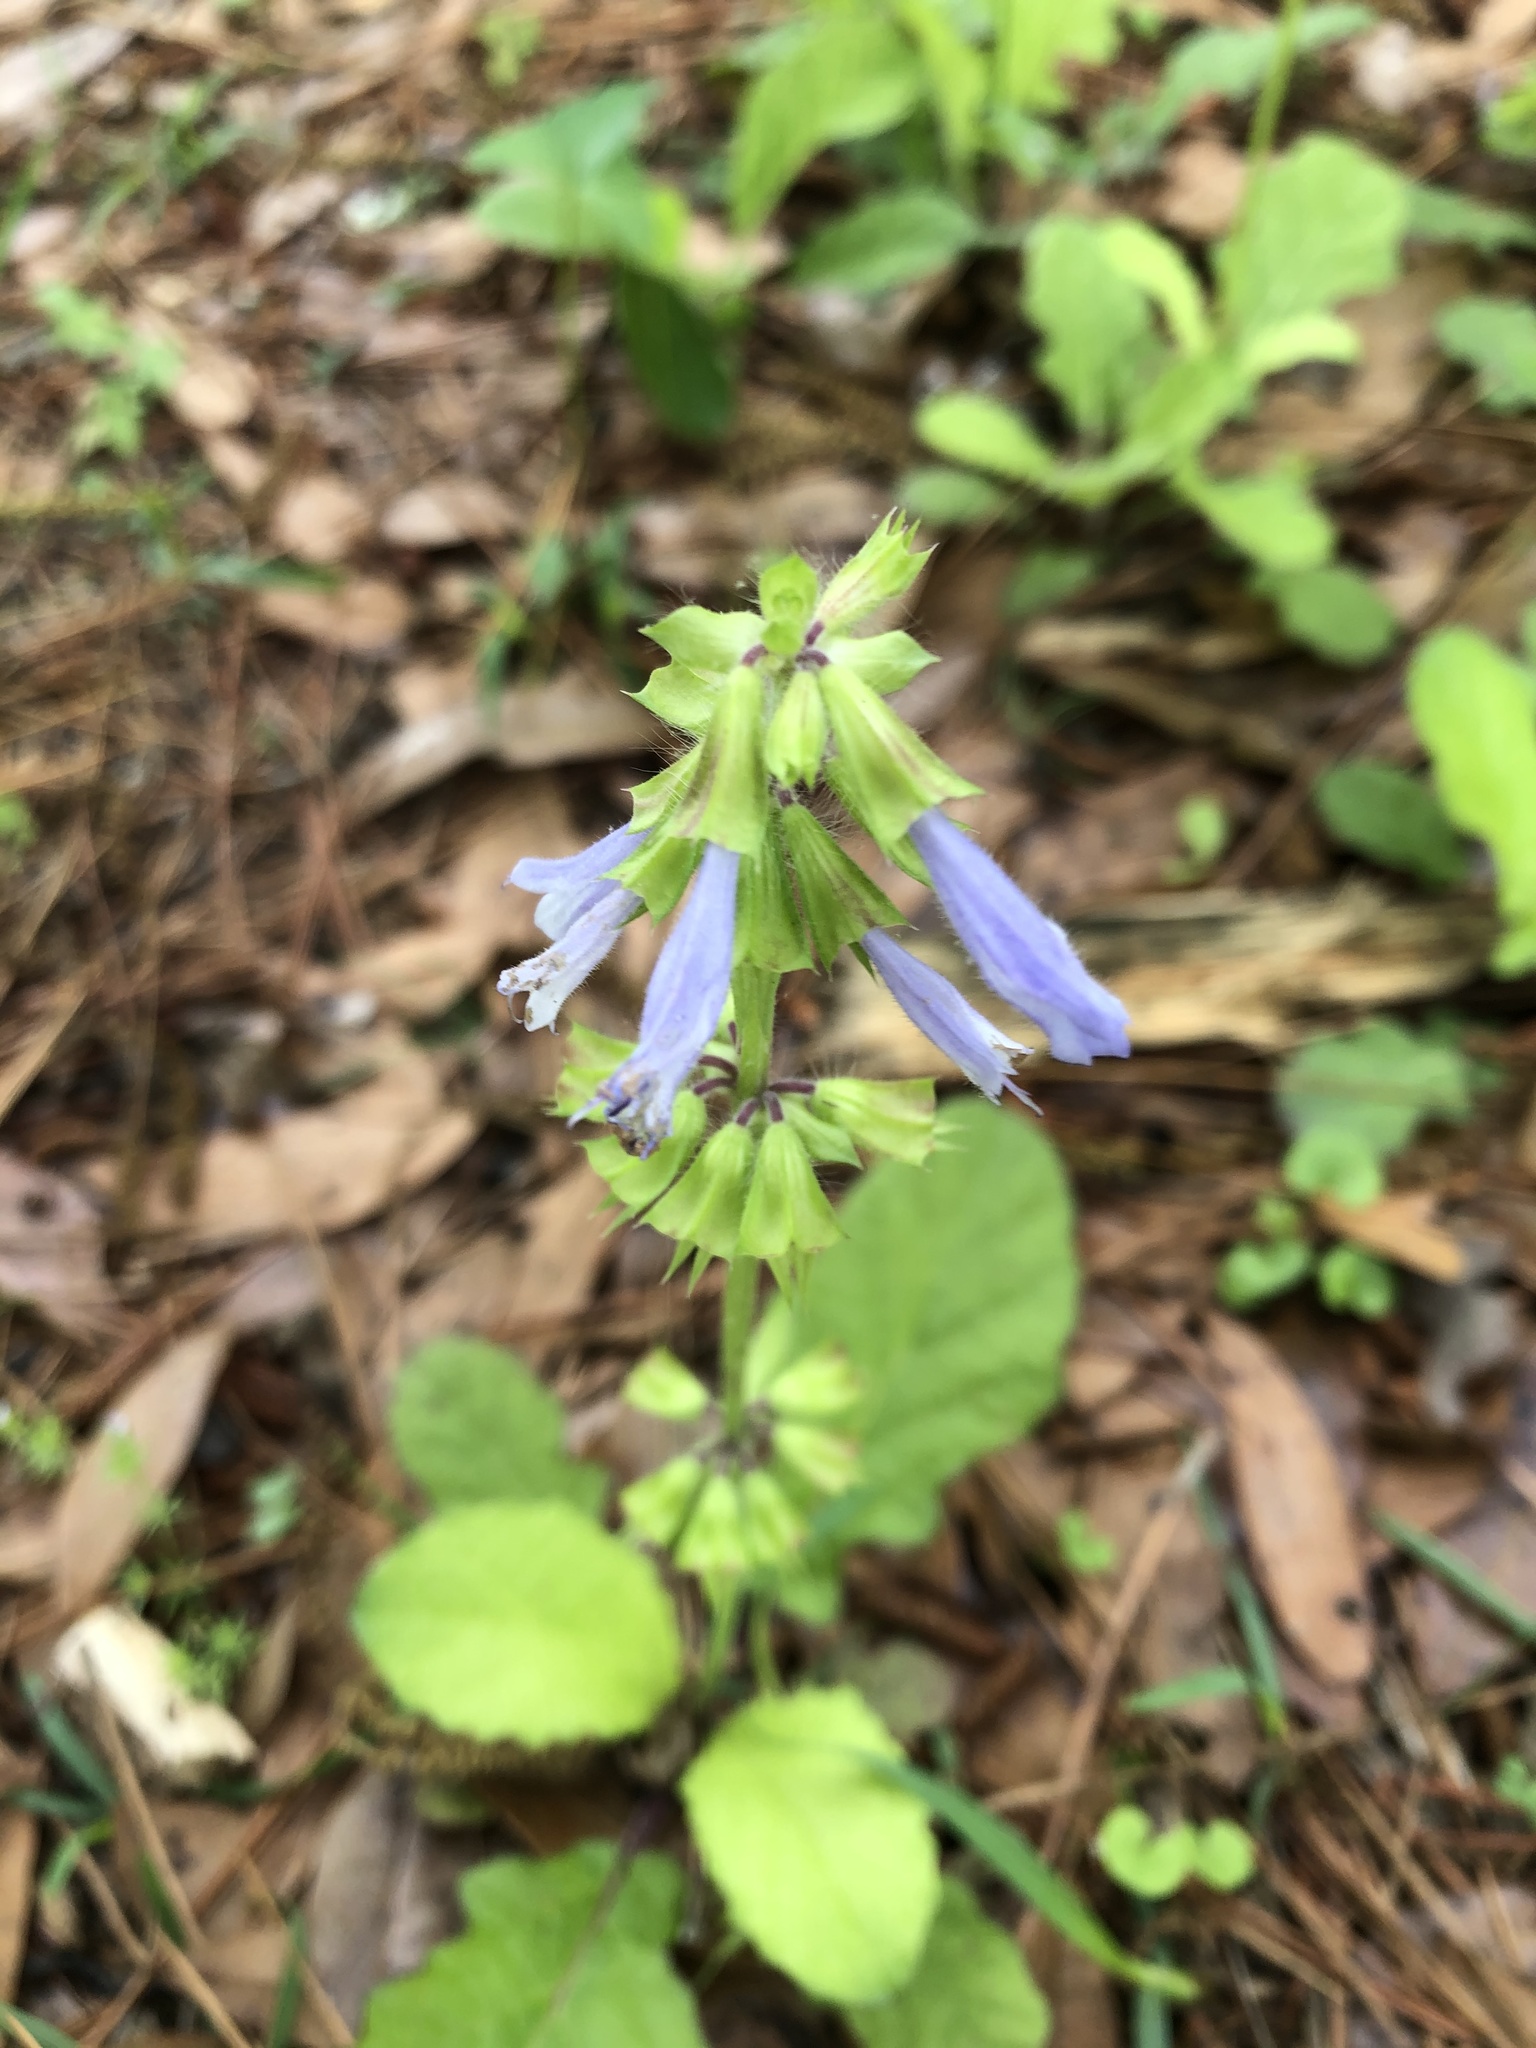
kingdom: Plantae
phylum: Tracheophyta
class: Magnoliopsida
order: Lamiales
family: Lamiaceae
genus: Salvia
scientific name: Salvia lyrata
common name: Cancerweed
